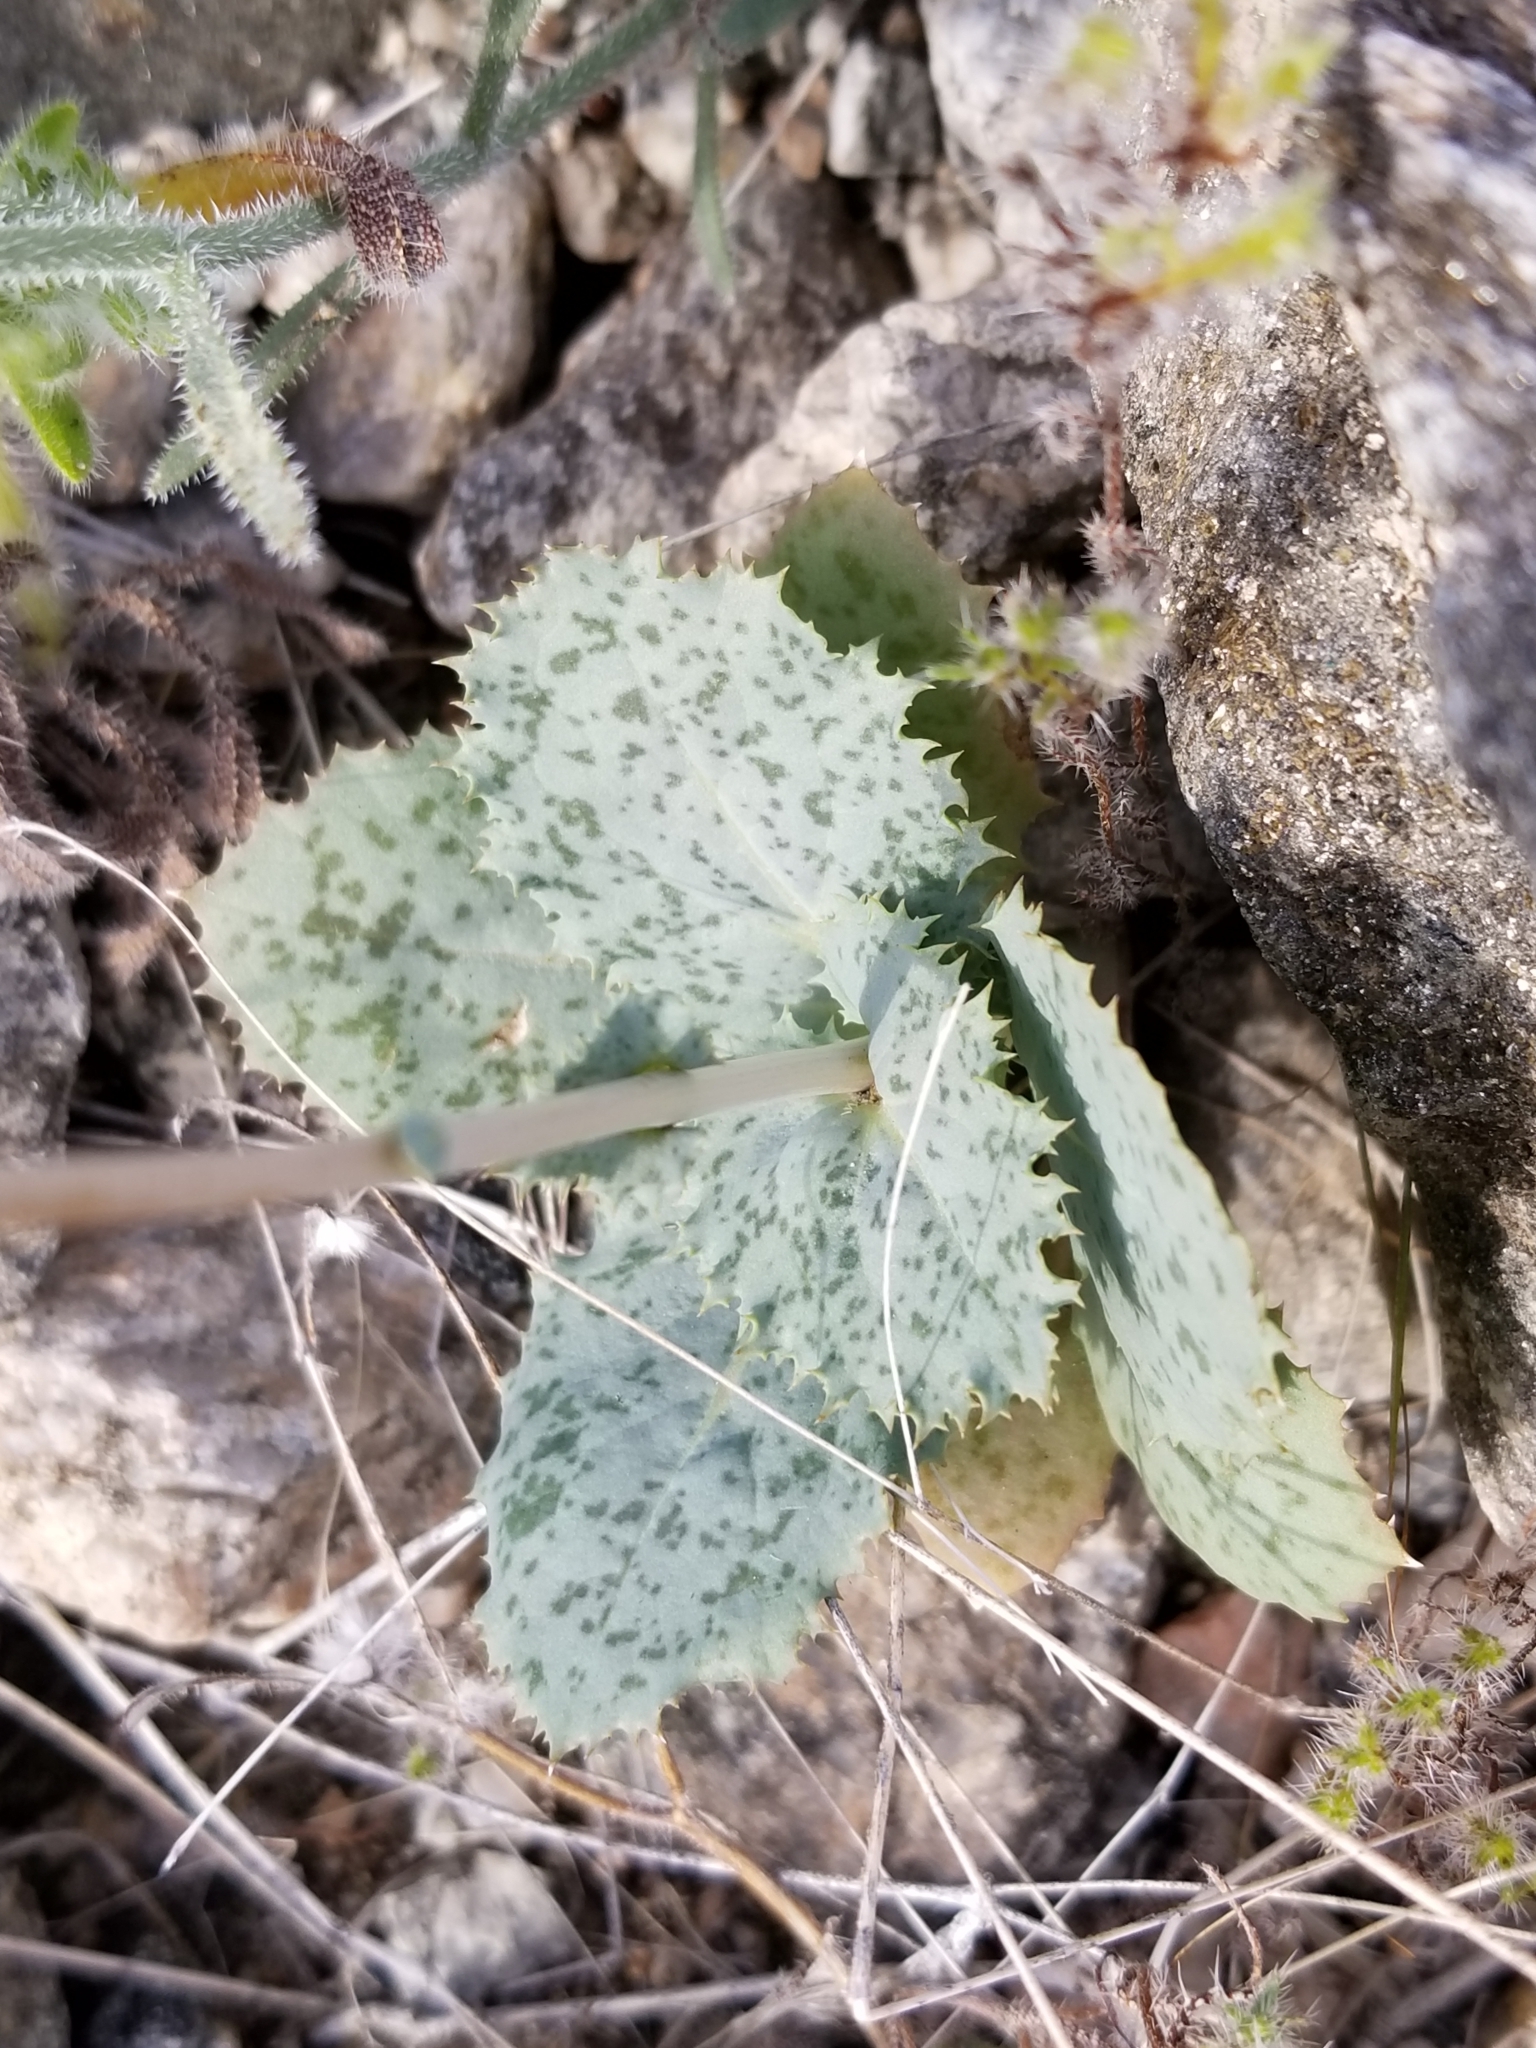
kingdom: Plantae
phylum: Tracheophyta
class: Magnoliopsida
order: Asterales
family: Asteraceae
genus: Atrichoseris
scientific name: Atrichoseris platyphylla
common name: Tobaccoweed
